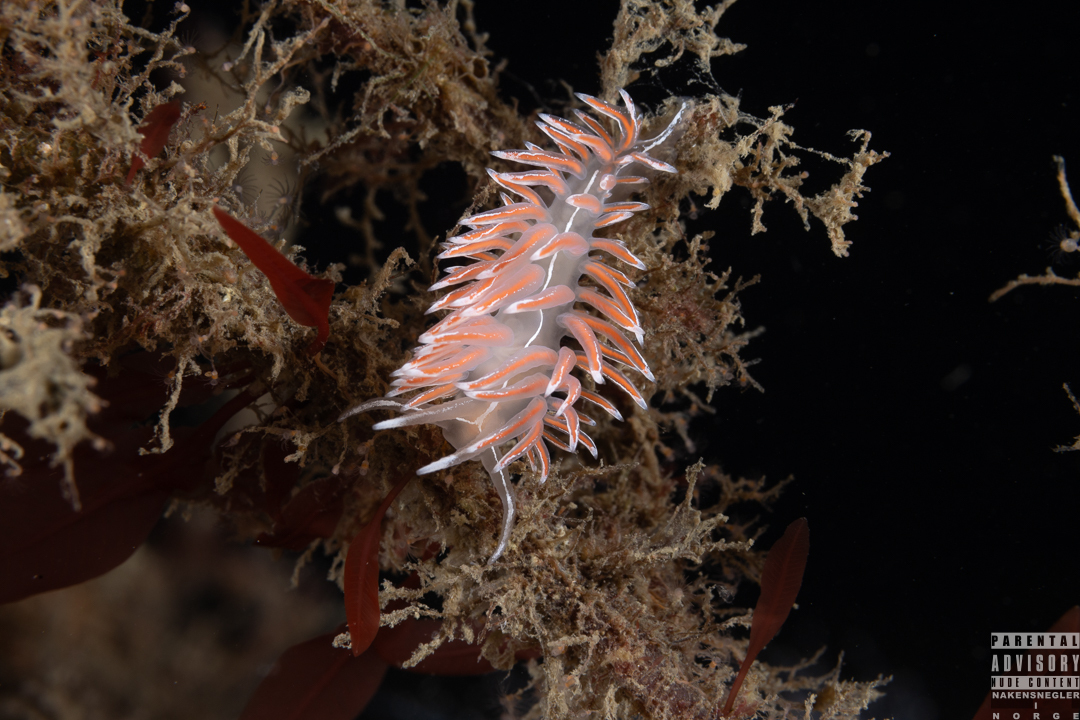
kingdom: Animalia
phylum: Mollusca
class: Gastropoda
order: Nudibranchia
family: Coryphellidae
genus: Coryphella
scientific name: Coryphella lineata
